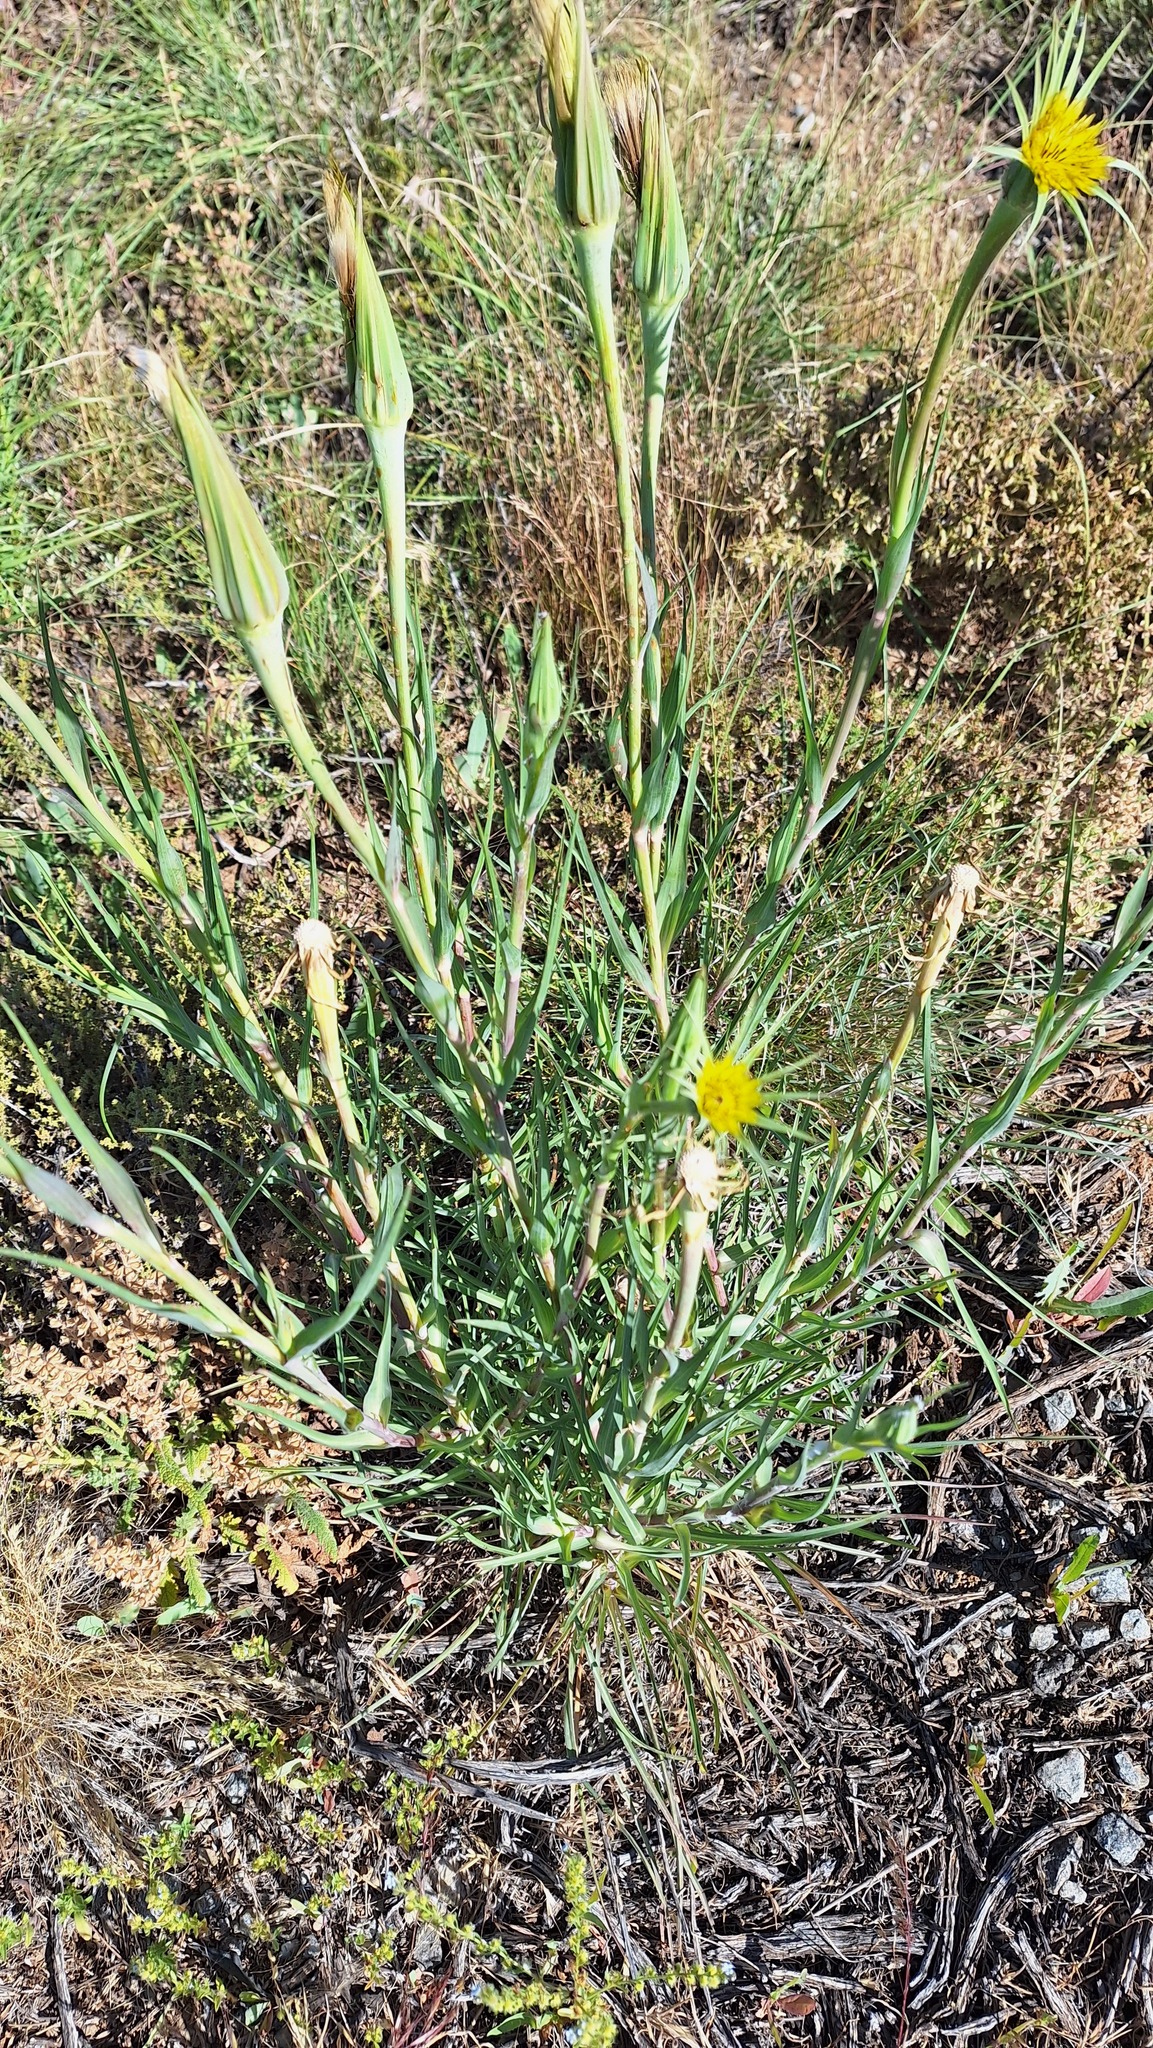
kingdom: Plantae
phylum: Tracheophyta
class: Magnoliopsida
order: Asterales
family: Asteraceae
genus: Tragopogon
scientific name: Tragopogon dubius
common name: Yellow salsify
